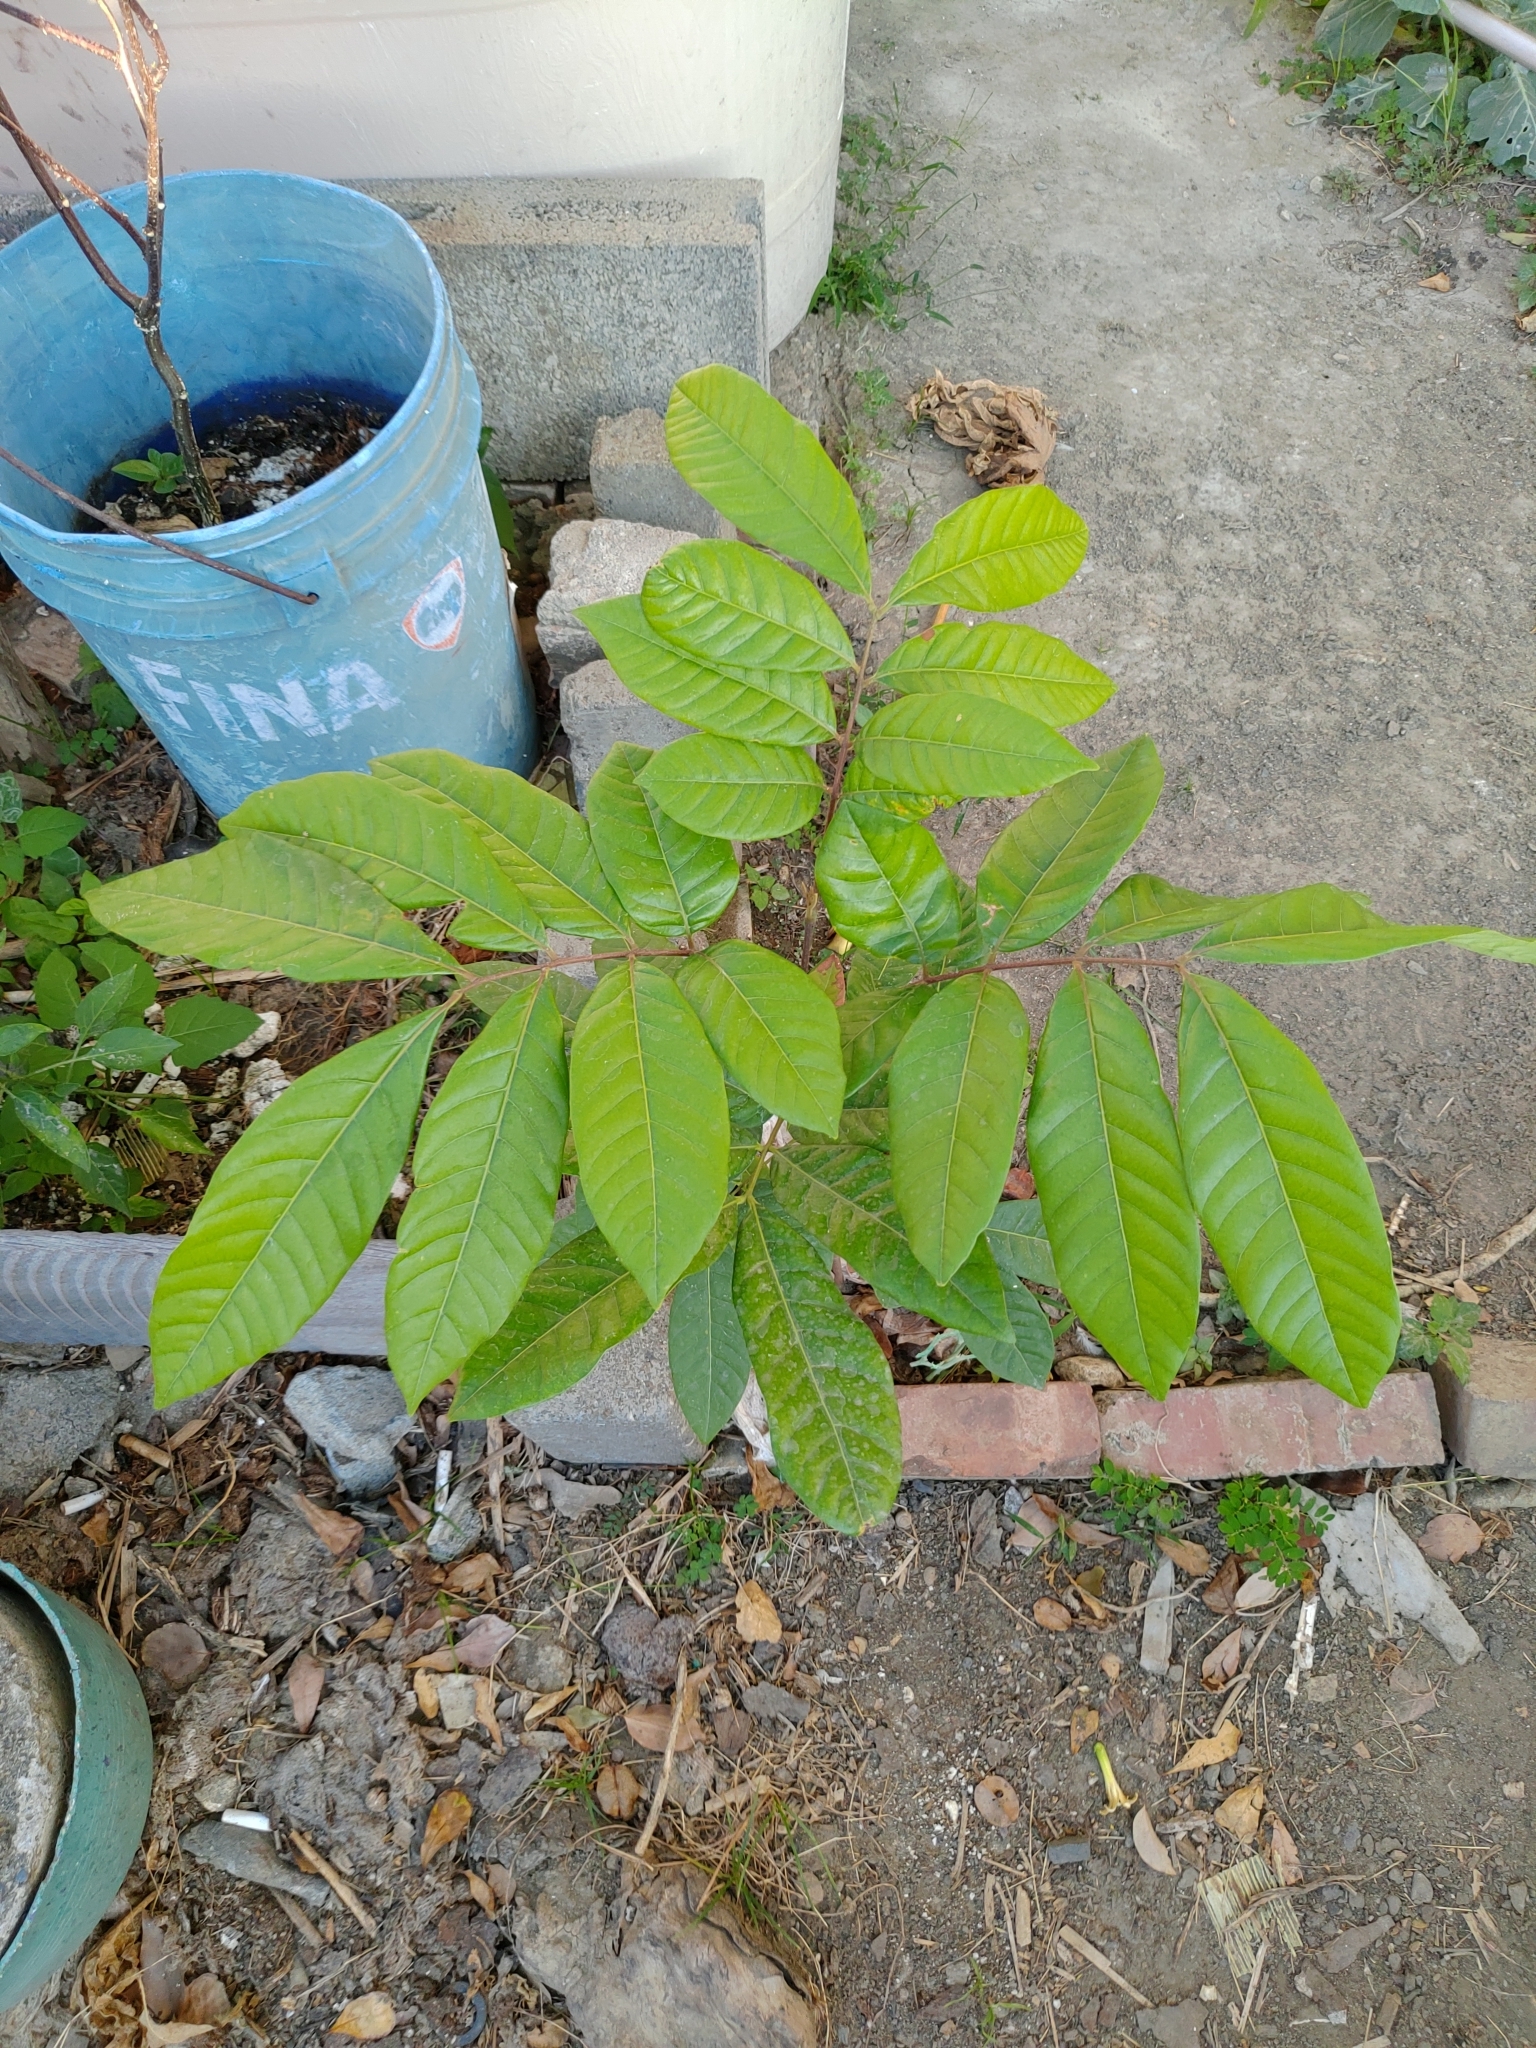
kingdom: Plantae
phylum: Tracheophyta
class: Magnoliopsida
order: Sapindales
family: Sapindaceae
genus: Dimocarpus
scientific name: Dimocarpus longan
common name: Longan
